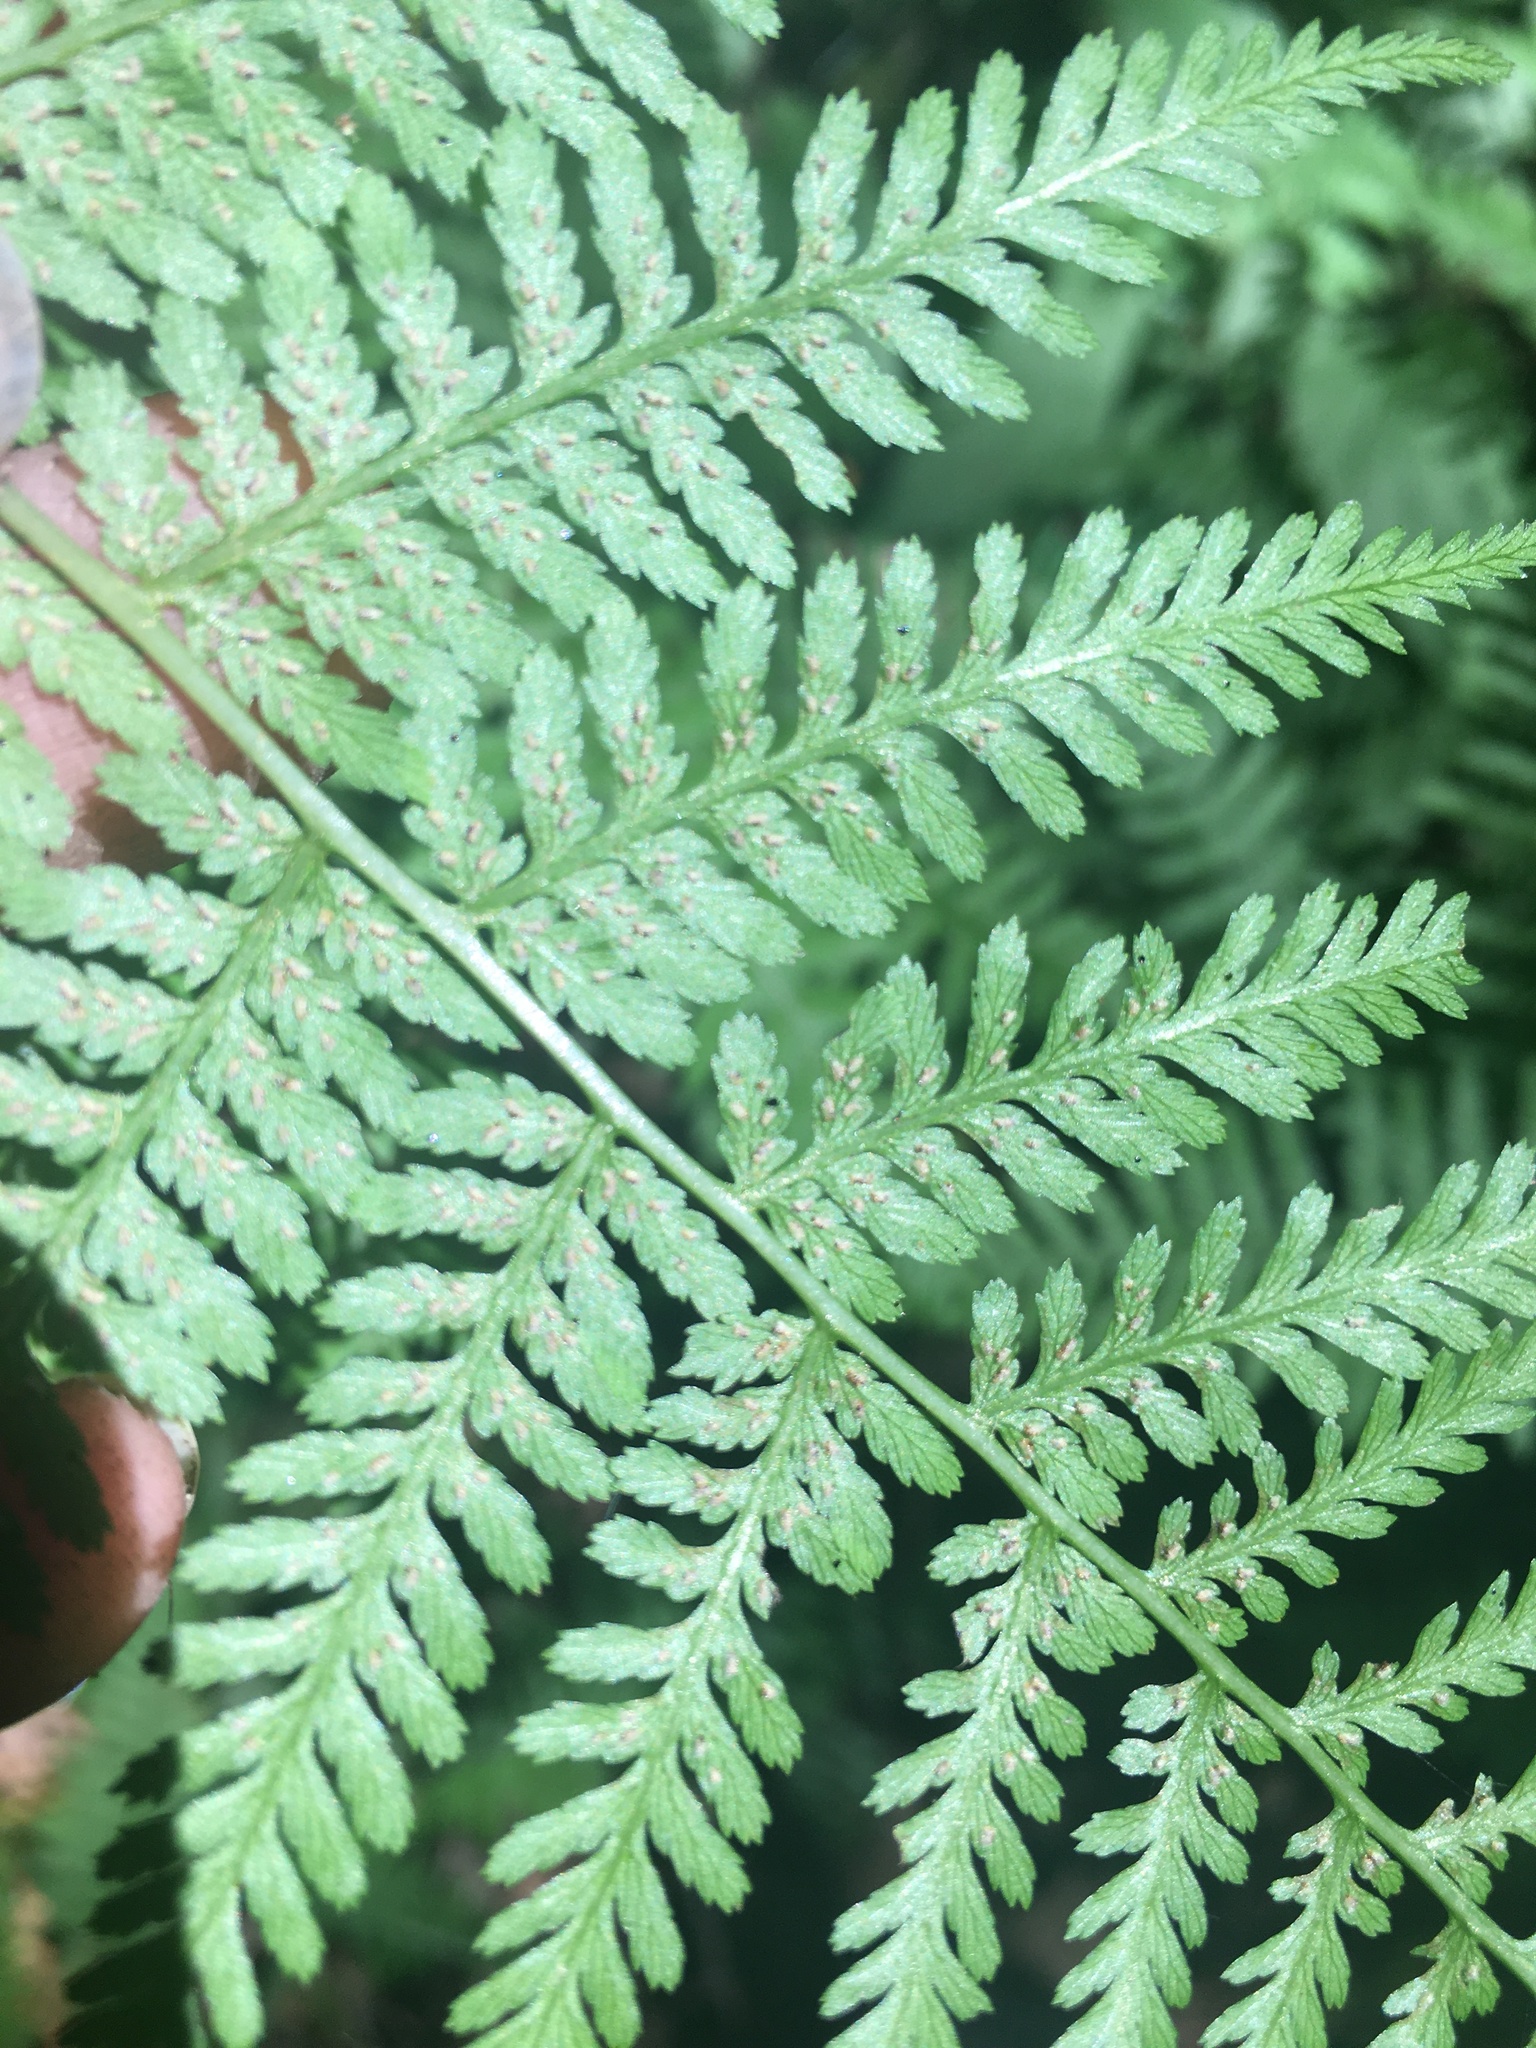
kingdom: Plantae
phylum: Tracheophyta
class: Polypodiopsida
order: Polypodiales
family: Athyriaceae
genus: Athyrium
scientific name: Athyrium asplenioides
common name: Southern lady fern
